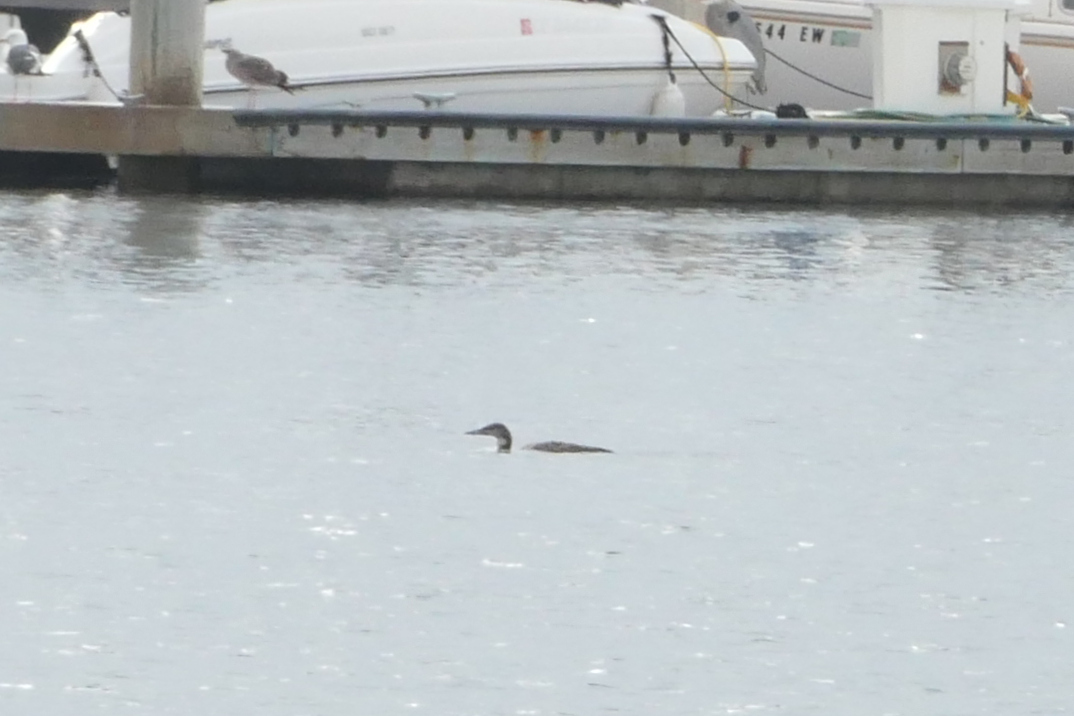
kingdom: Animalia
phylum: Chordata
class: Aves
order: Gaviiformes
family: Gaviidae
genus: Gavia
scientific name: Gavia immer
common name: Common loon
